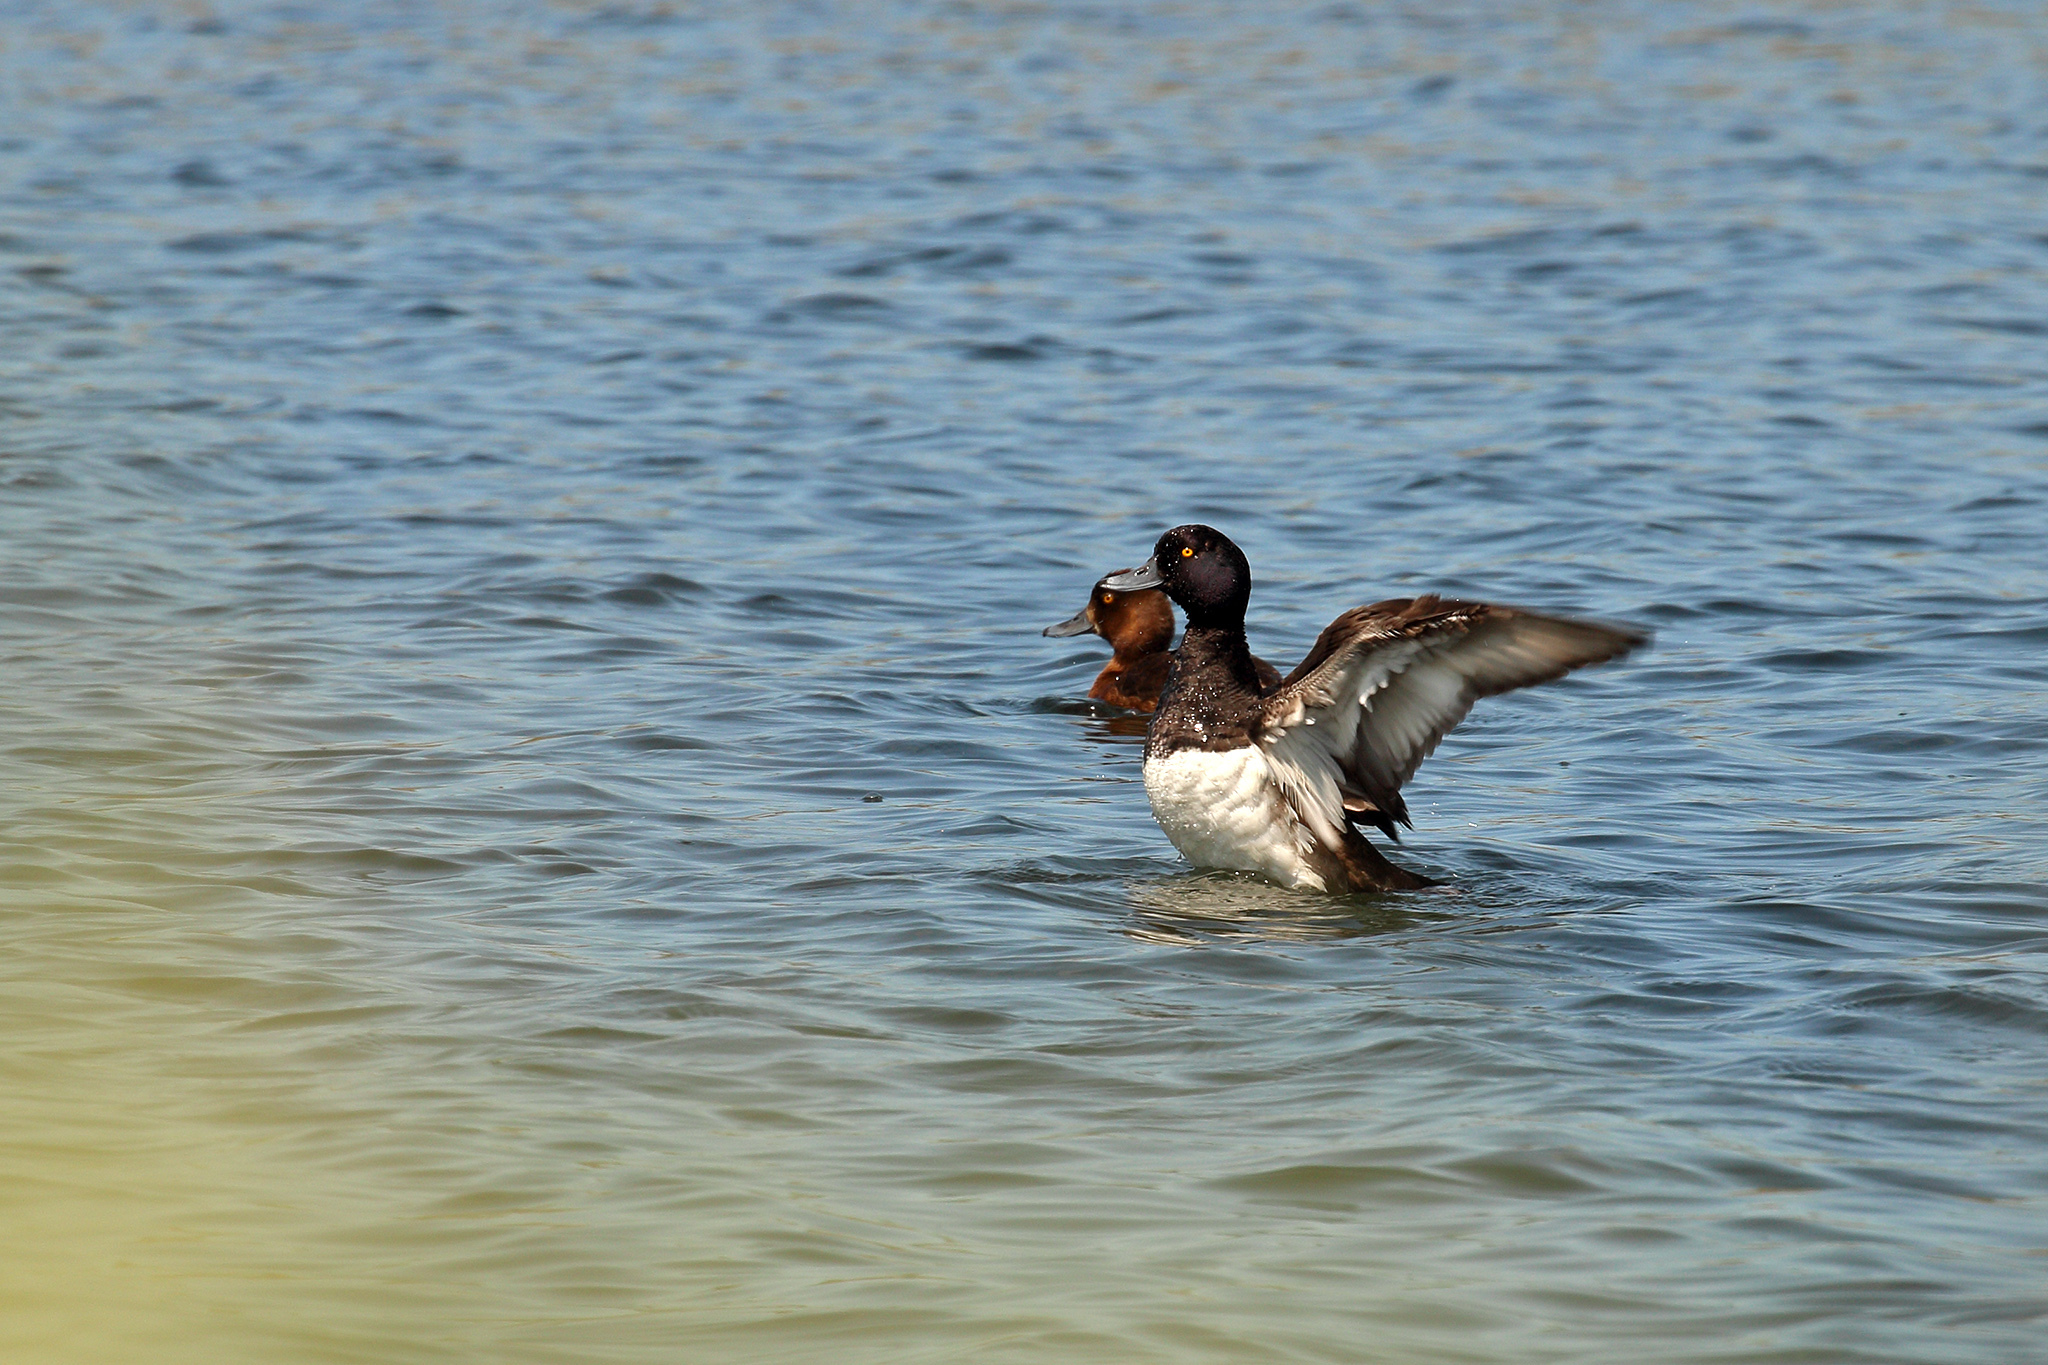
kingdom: Animalia
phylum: Chordata
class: Aves
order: Anseriformes
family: Anatidae
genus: Aythya
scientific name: Aythya fuligula
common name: Tufted duck
